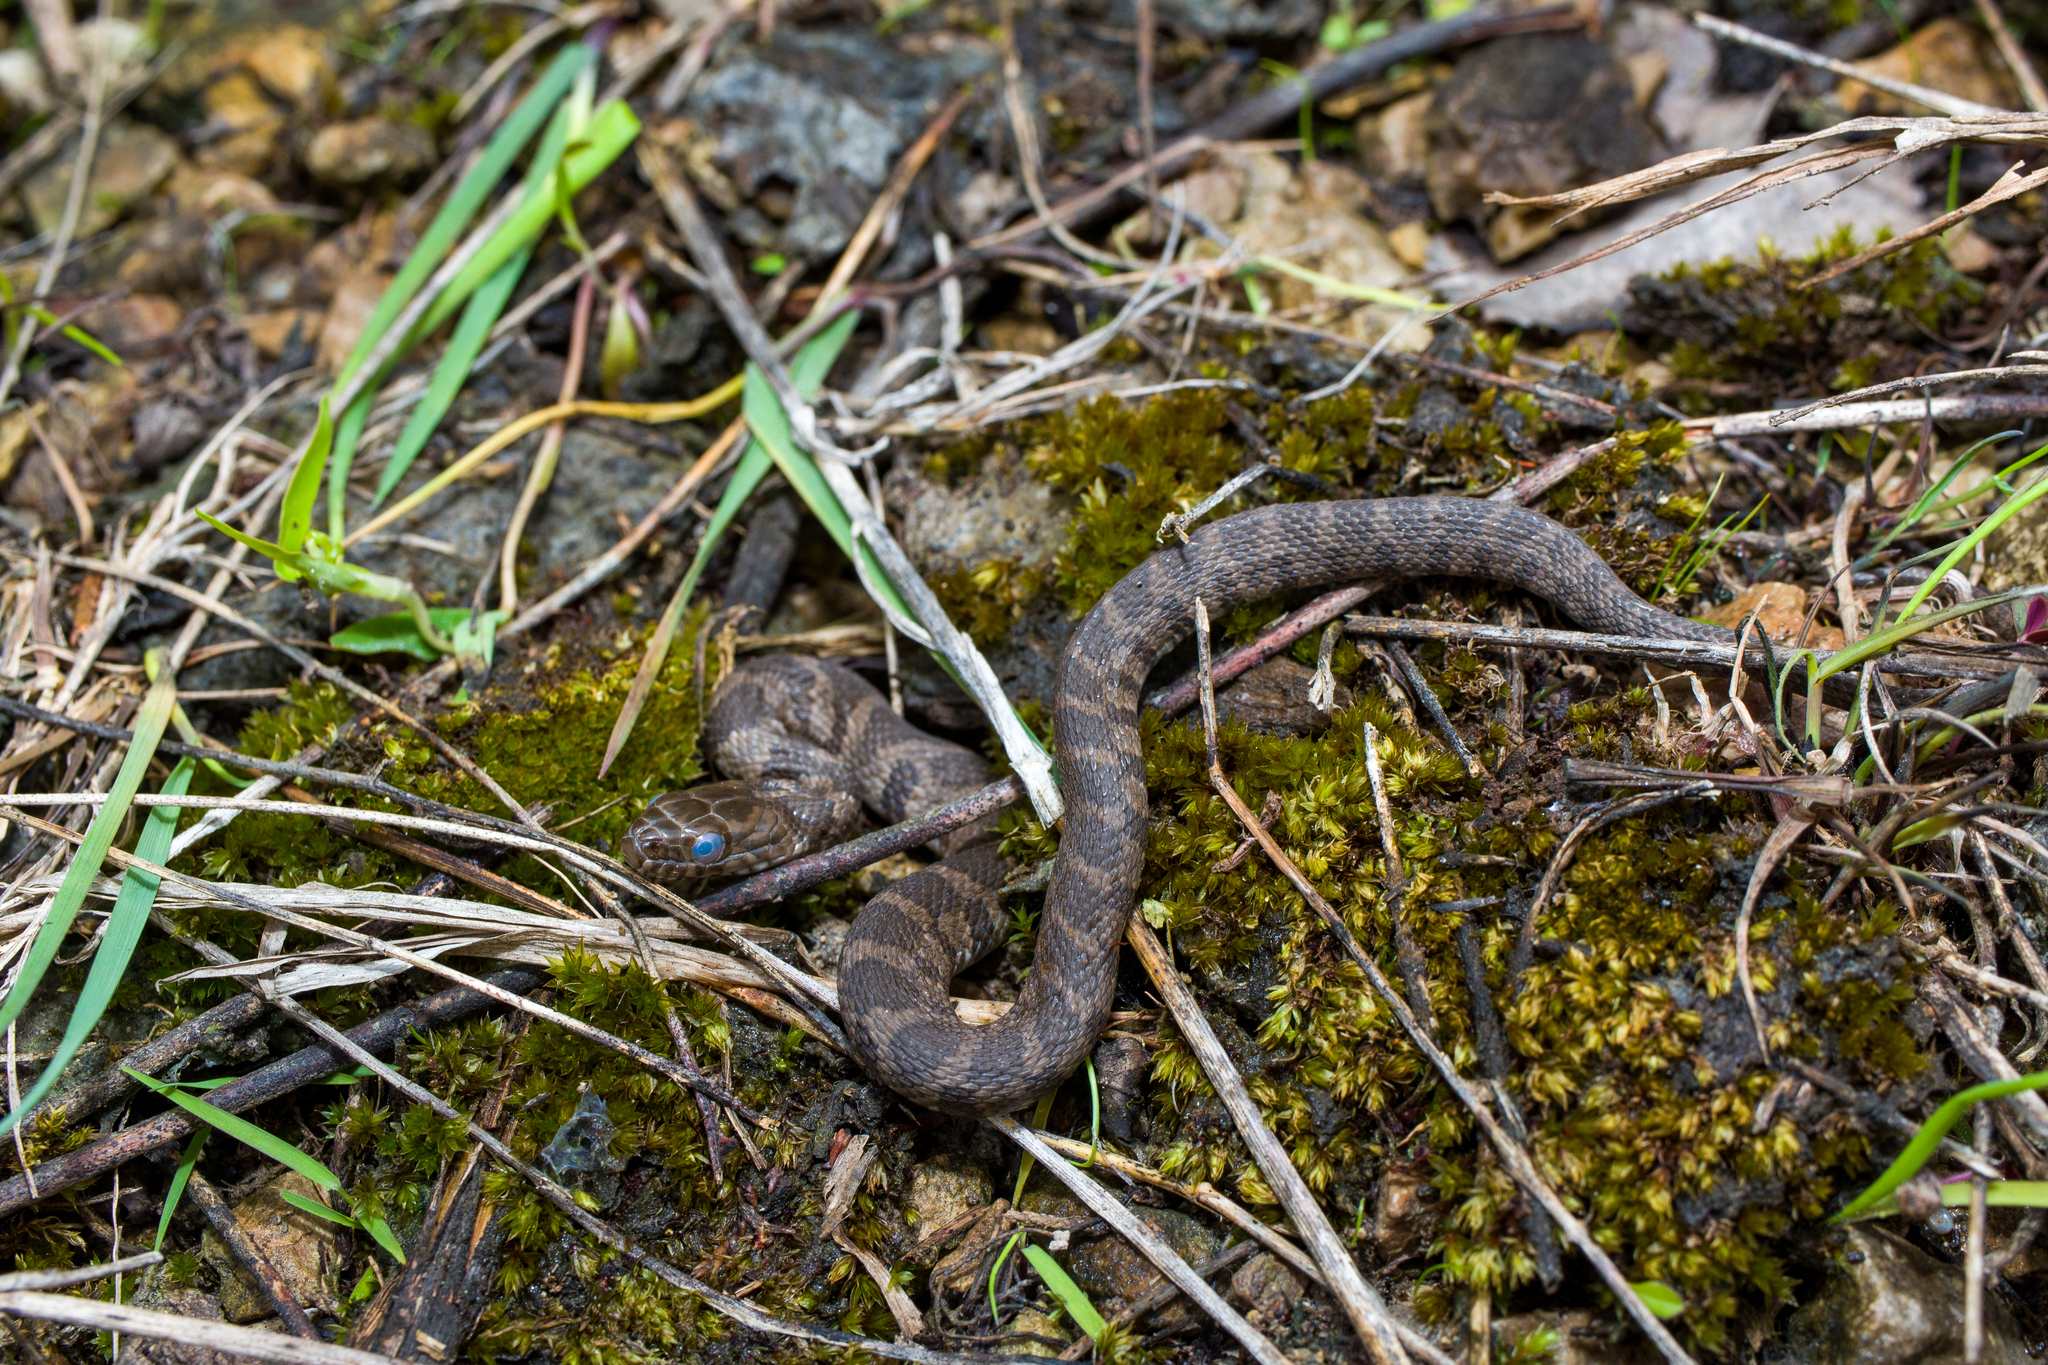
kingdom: Animalia
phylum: Chordata
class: Squamata
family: Colubridae
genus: Nerodia
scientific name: Nerodia sipedon
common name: Northern water snake
